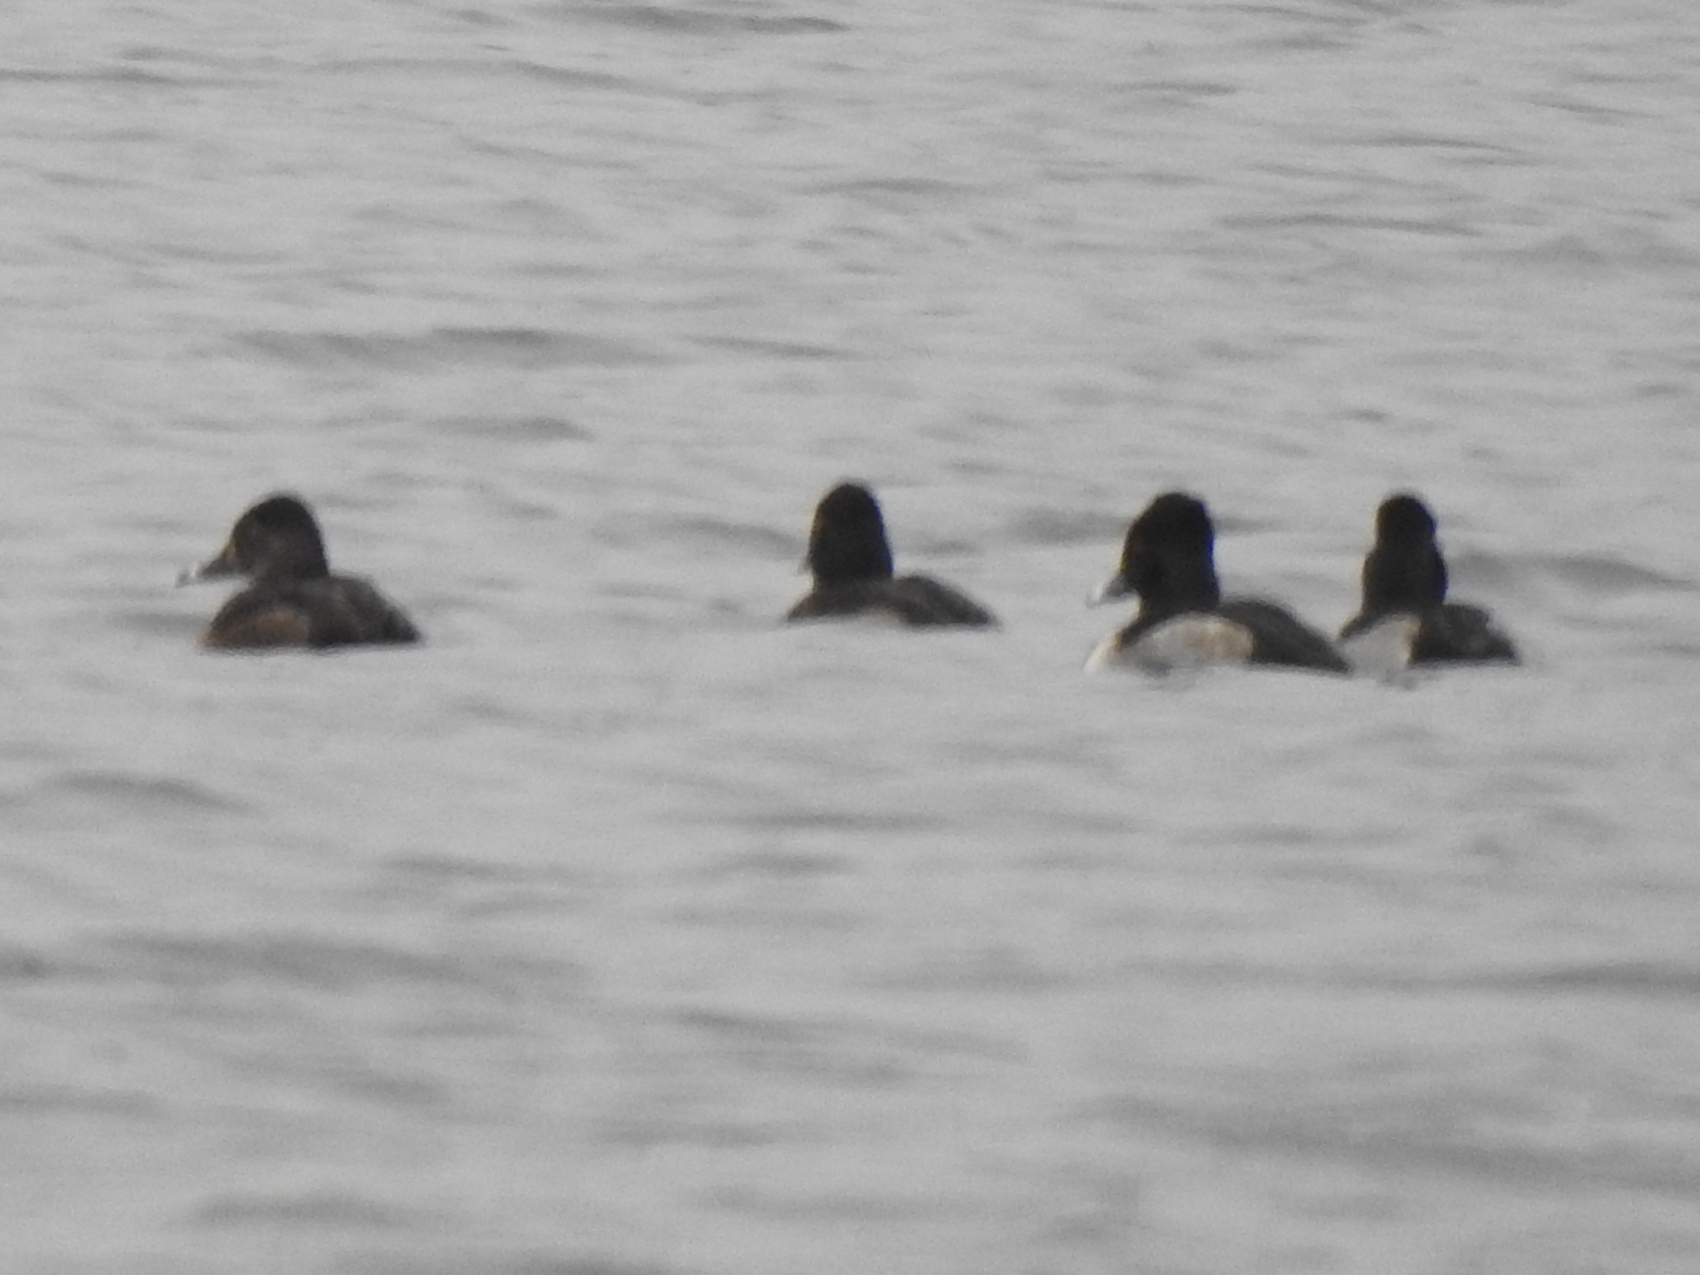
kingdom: Animalia
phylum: Chordata
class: Aves
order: Anseriformes
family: Anatidae
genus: Aythya
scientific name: Aythya collaris
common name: Ring-necked duck
